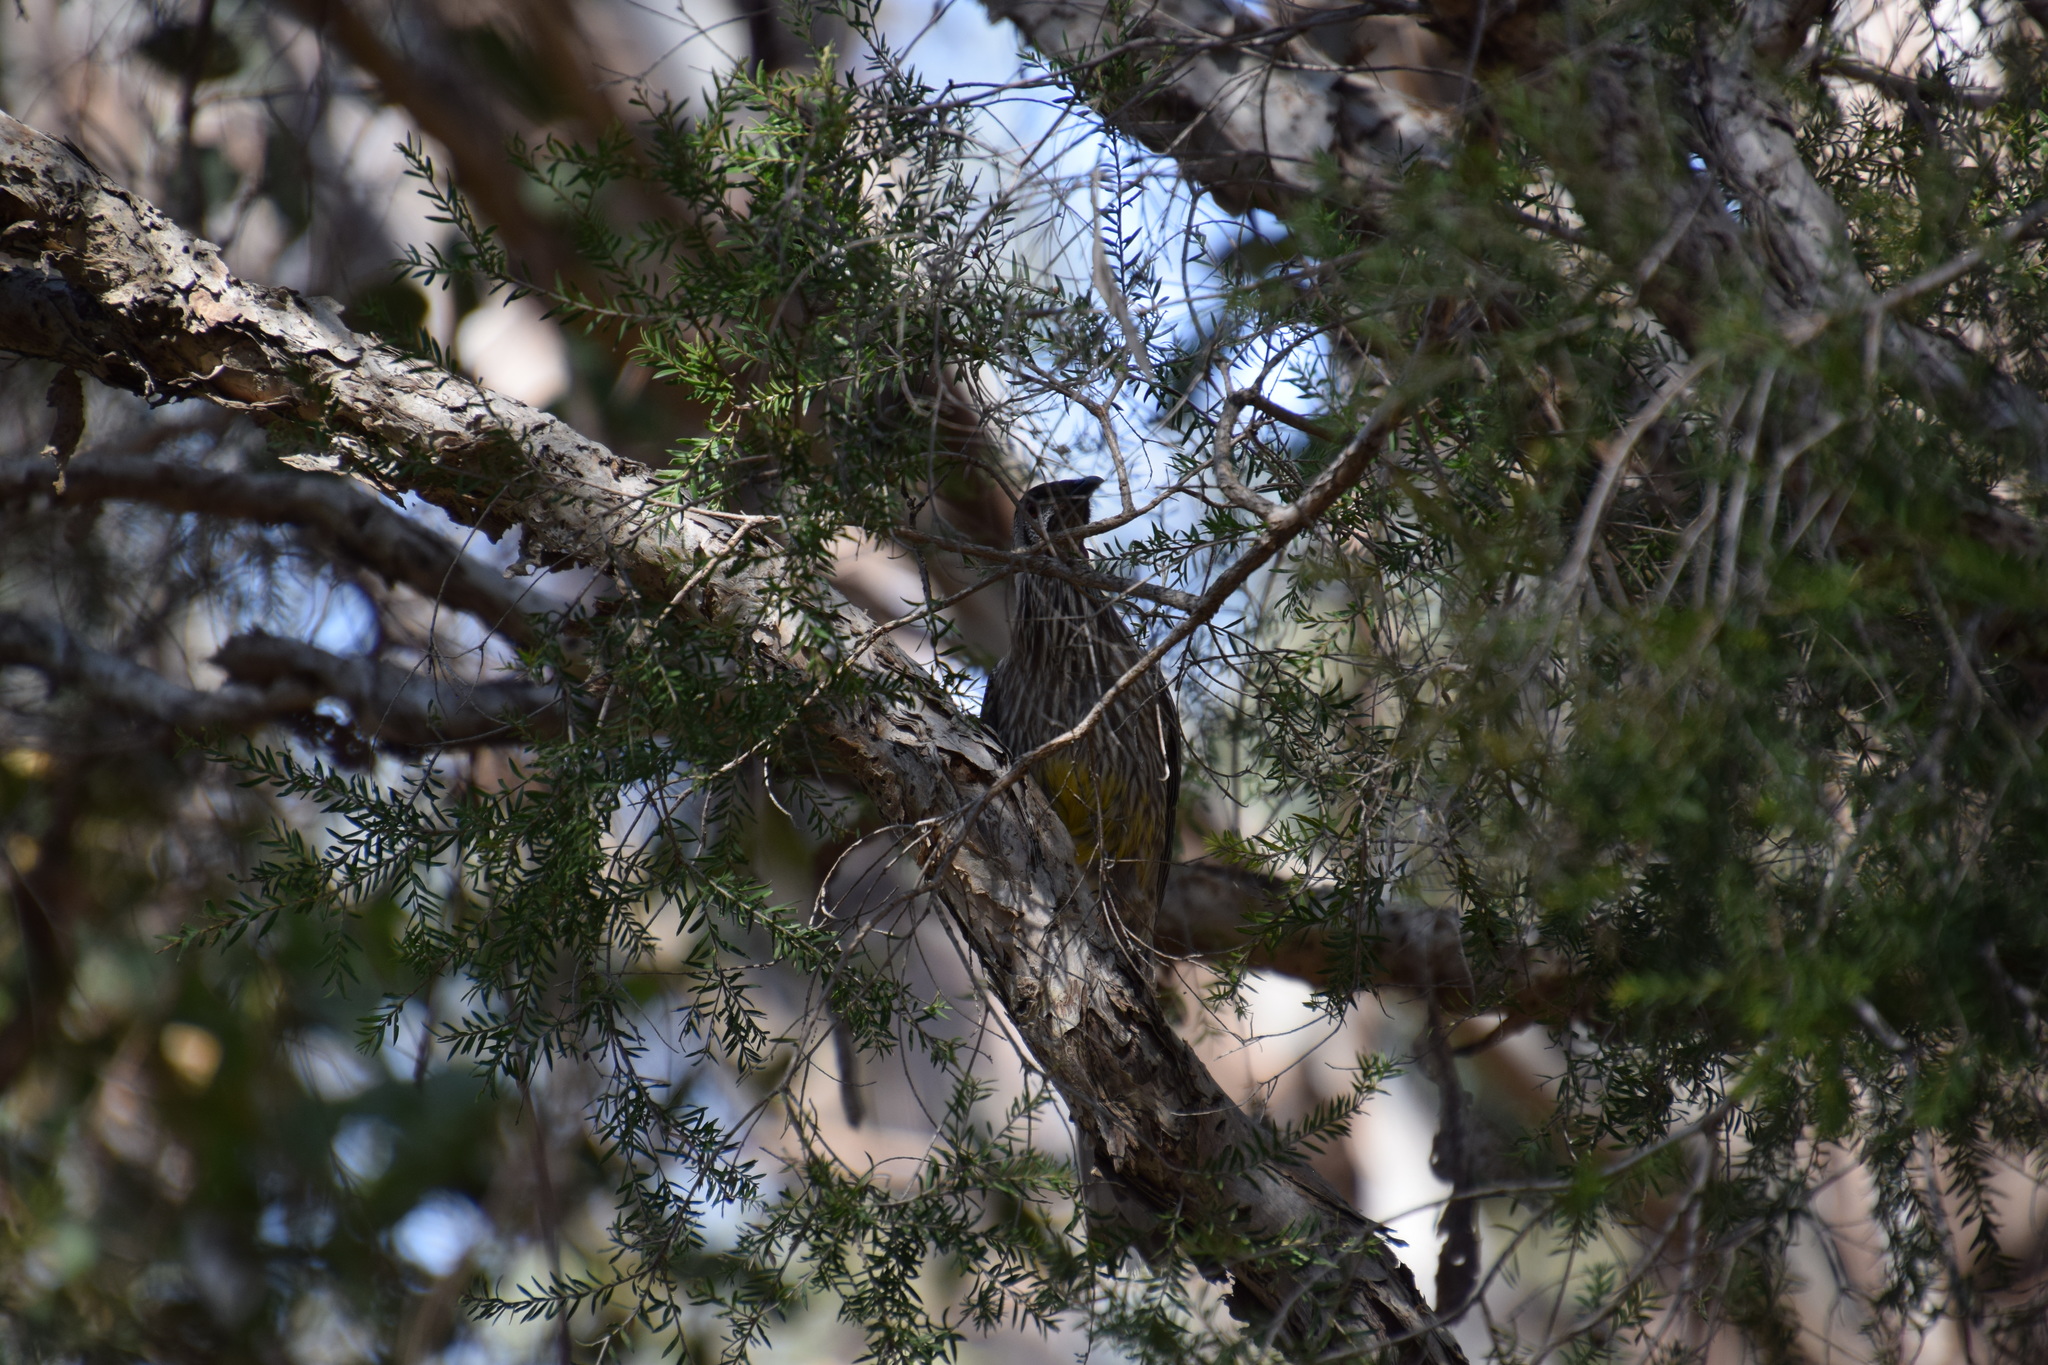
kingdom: Animalia
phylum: Chordata
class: Aves
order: Passeriformes
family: Meliphagidae
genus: Anthochaera
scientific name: Anthochaera carunculata
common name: Red wattlebird
